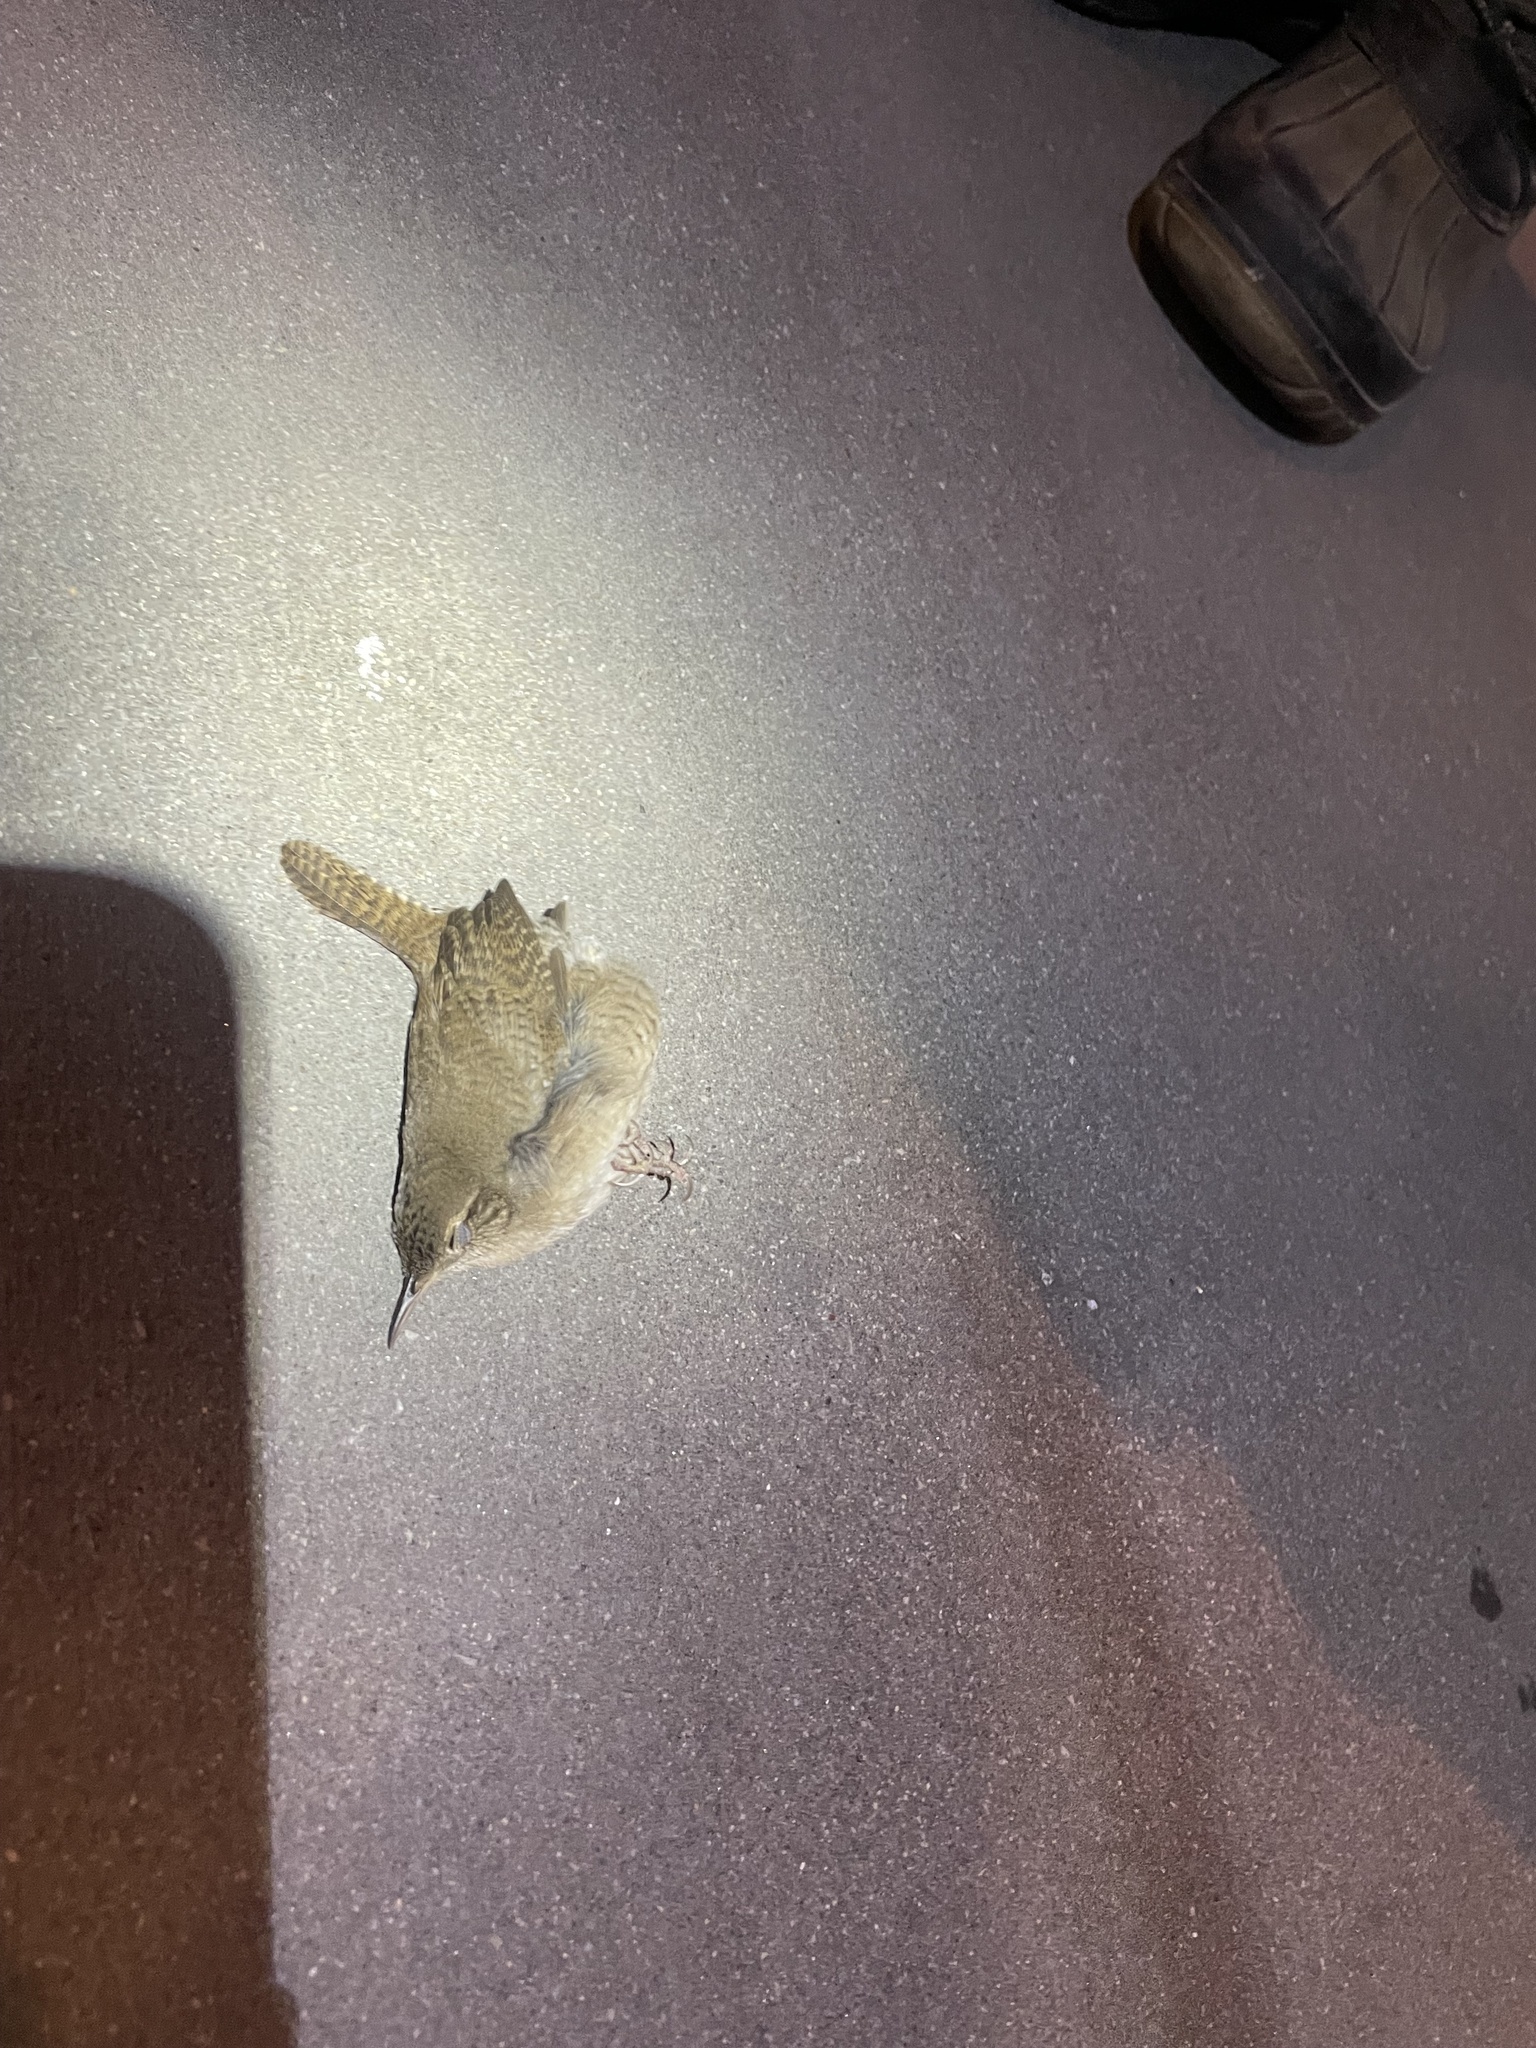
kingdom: Animalia
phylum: Chordata
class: Aves
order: Passeriformes
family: Troglodytidae
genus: Troglodytes
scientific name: Troglodytes aedon
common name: House wren
